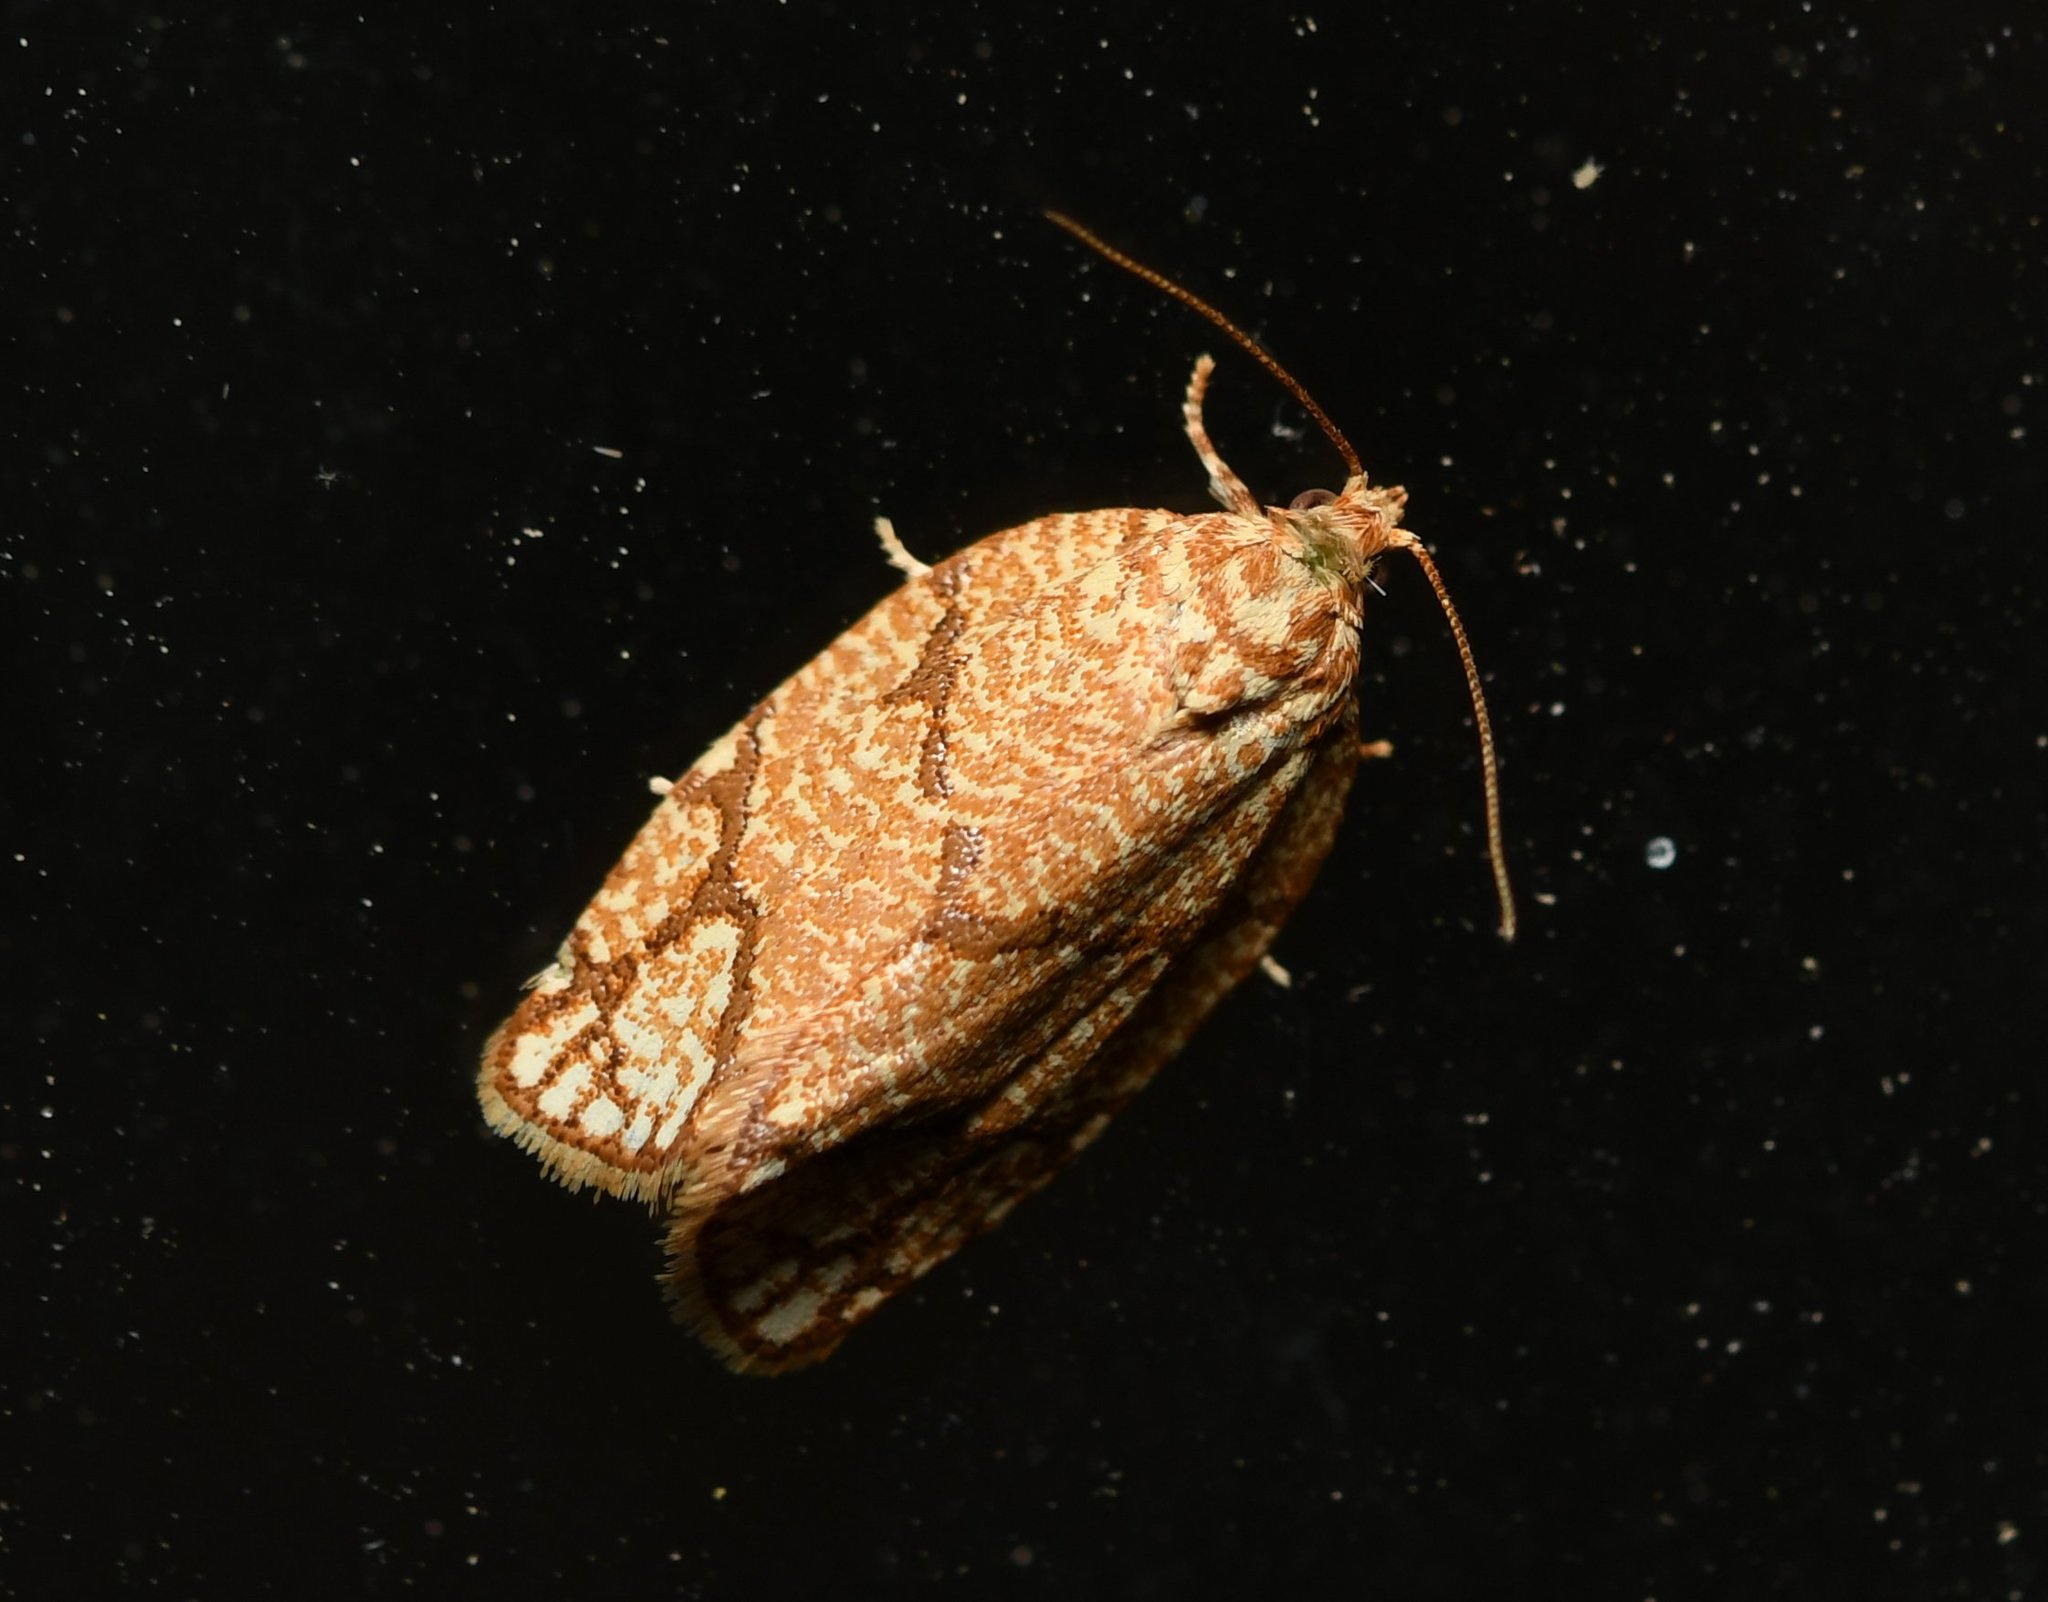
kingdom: Animalia
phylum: Arthropoda
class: Insecta
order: Lepidoptera
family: Tortricidae
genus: Argyrotaenia
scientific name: Argyrotaenia quercifoliana
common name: Yellow-winged oak leafroller moth
